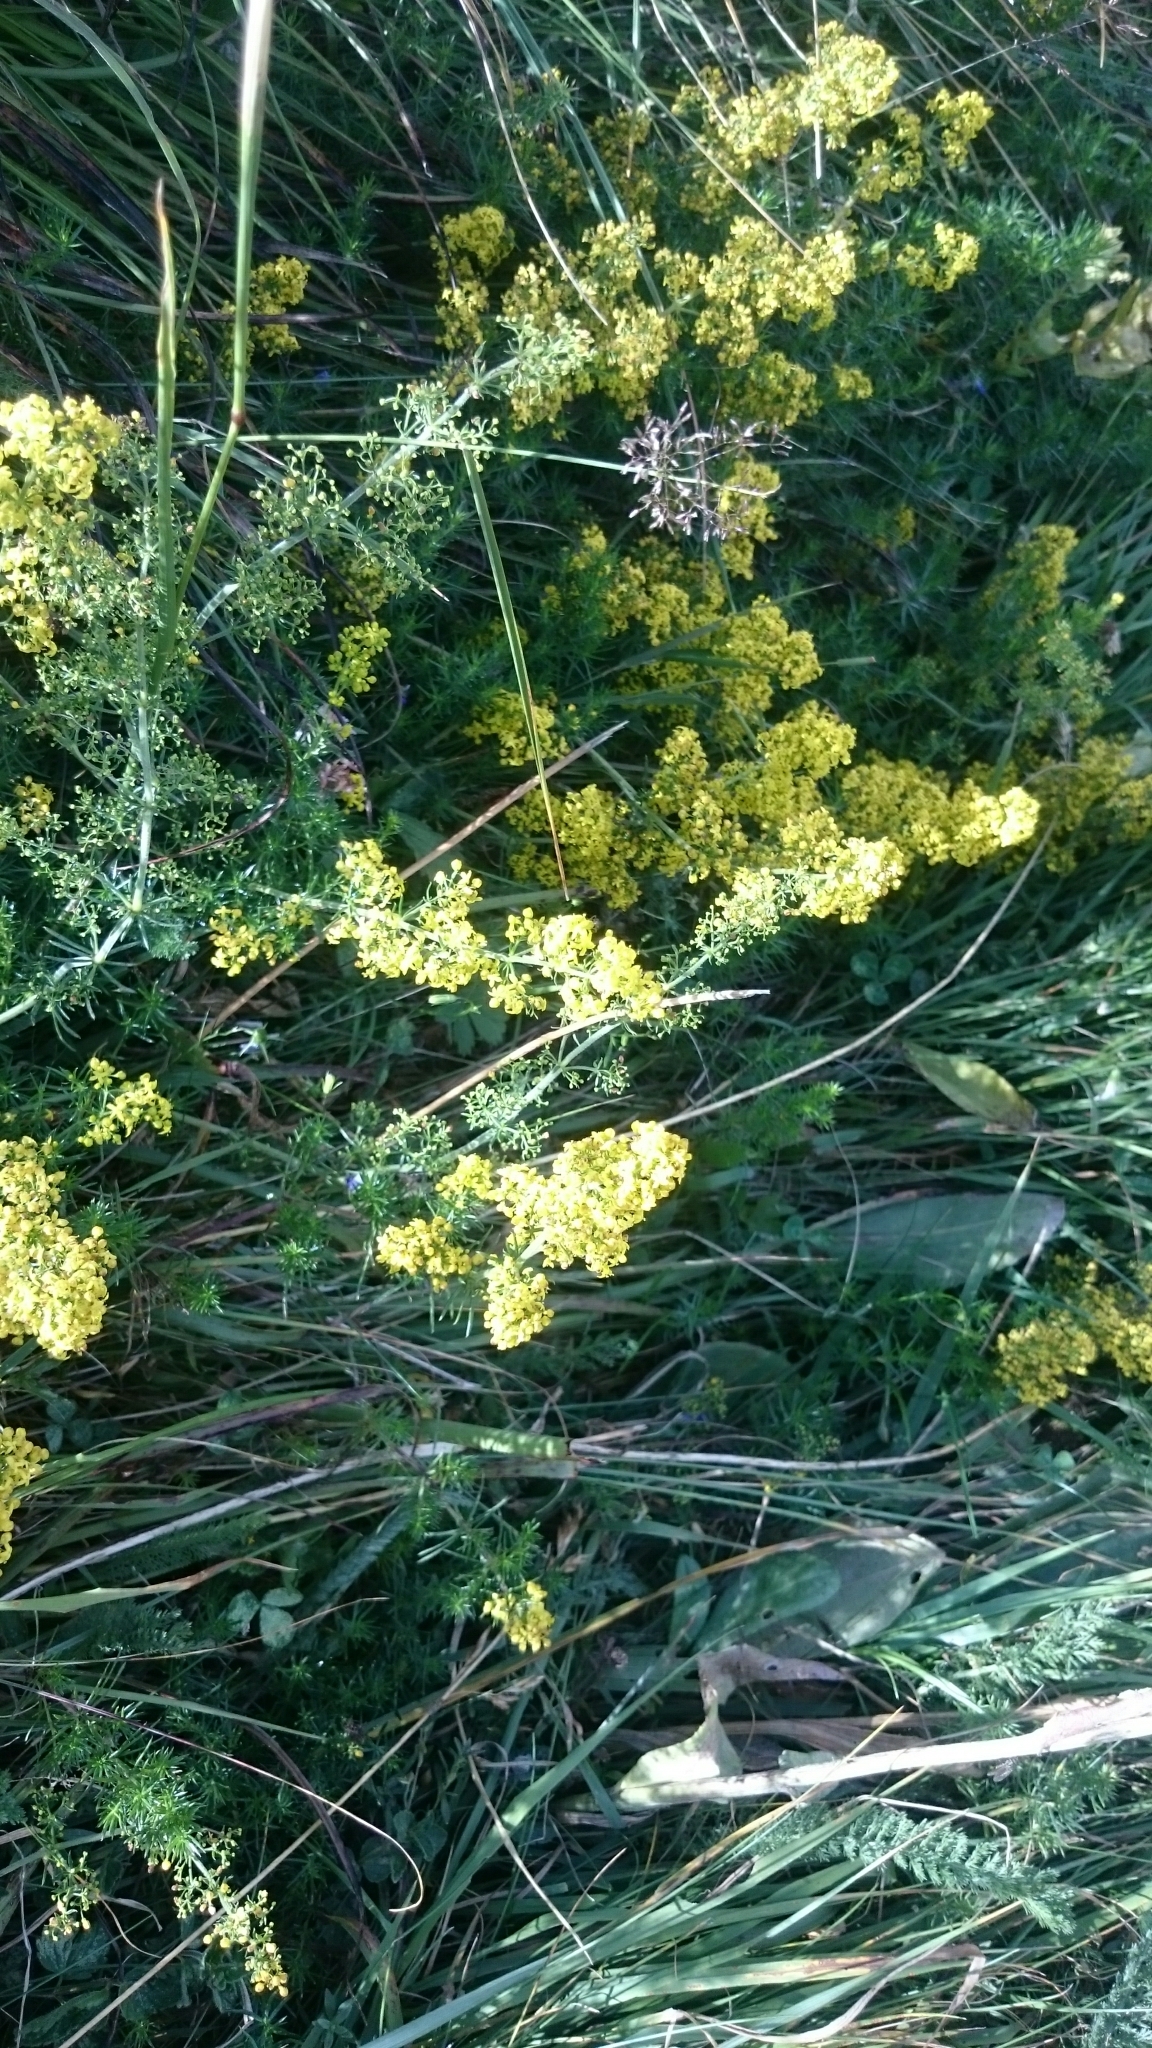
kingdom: Plantae
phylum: Tracheophyta
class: Magnoliopsida
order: Gentianales
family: Rubiaceae
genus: Galium
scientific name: Galium verum
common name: Lady's bedstraw
